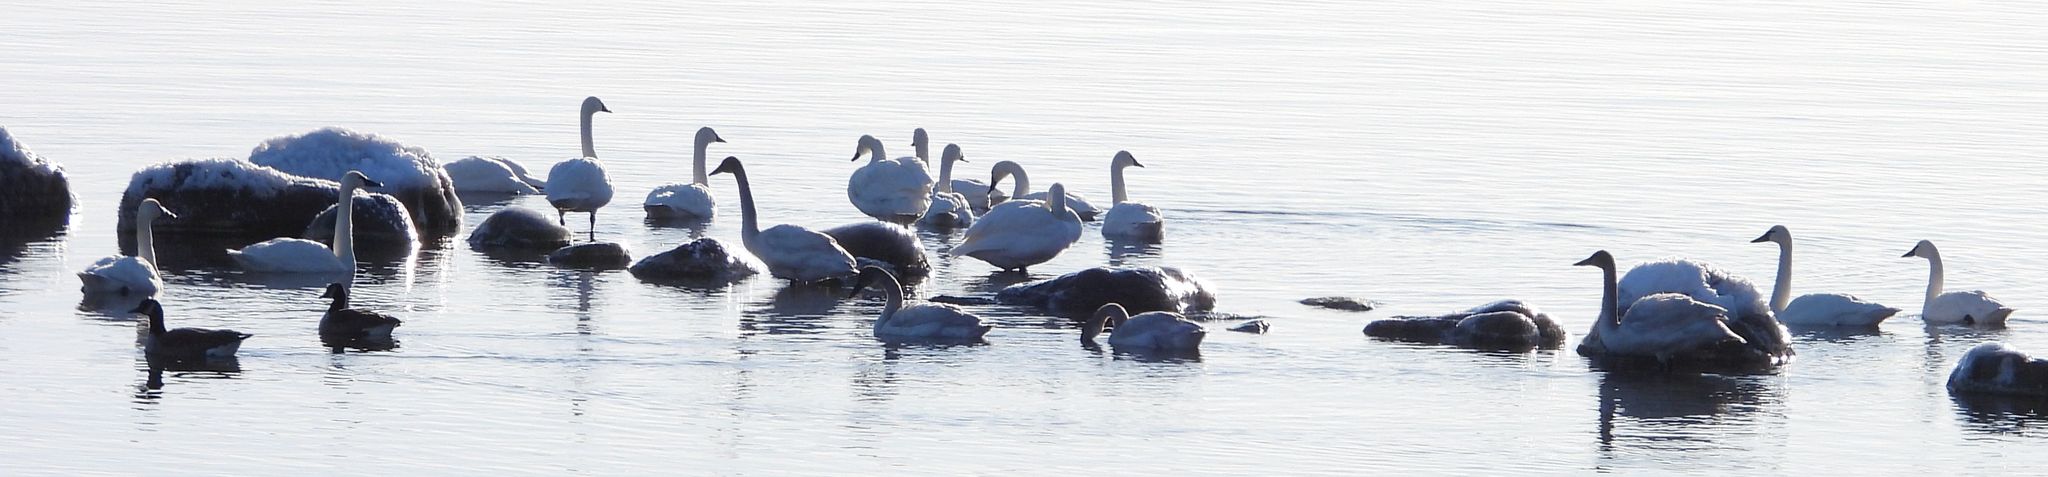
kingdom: Animalia
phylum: Chordata
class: Aves
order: Anseriformes
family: Anatidae
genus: Cygnus
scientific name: Cygnus columbianus
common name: Tundra swan
